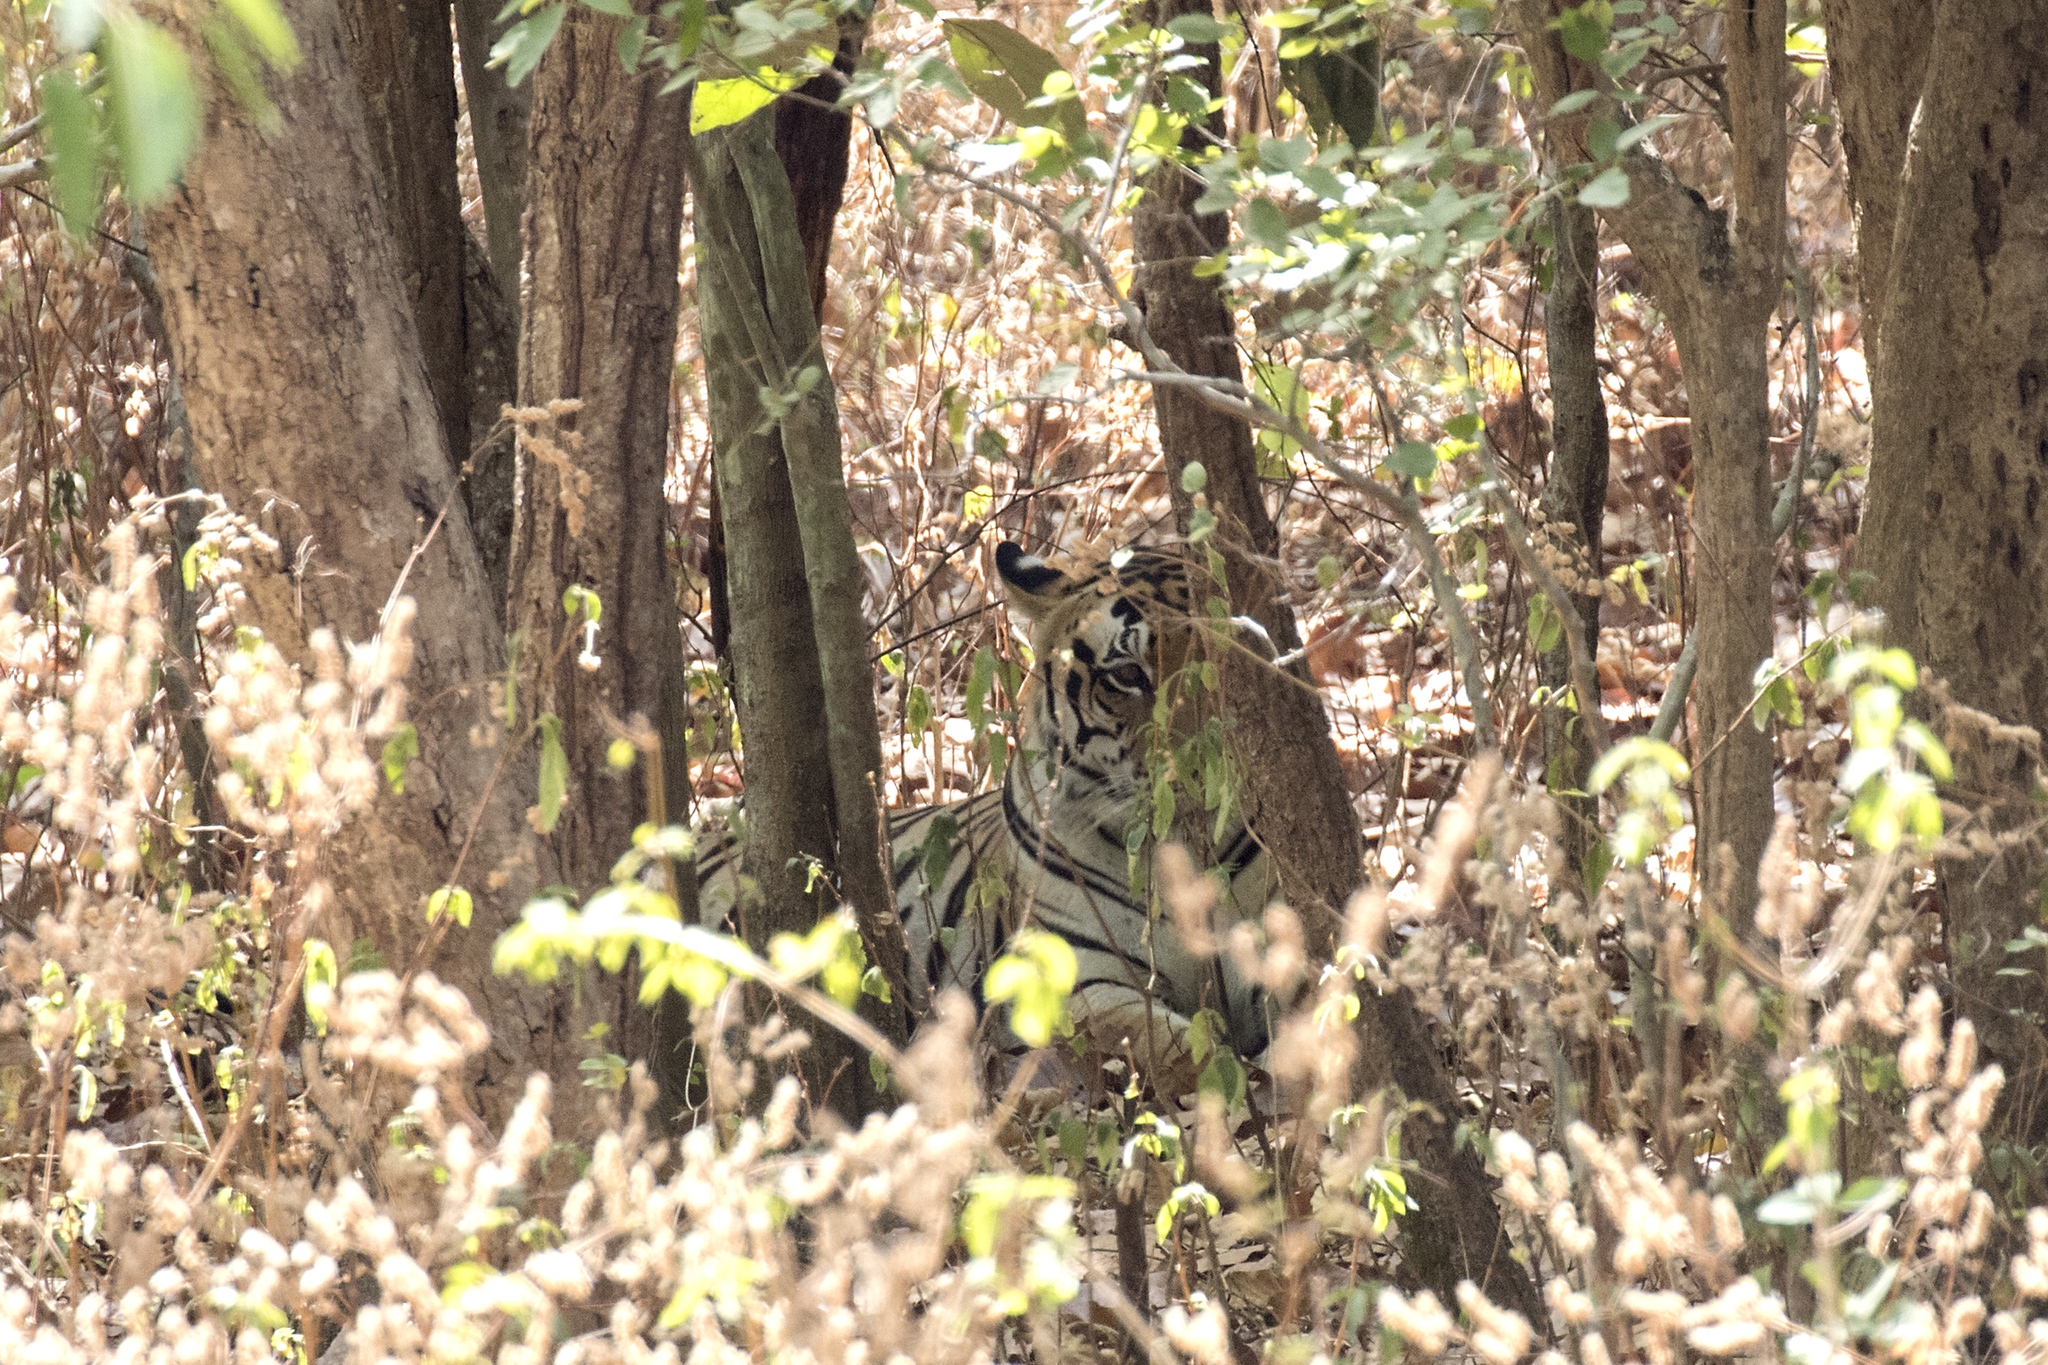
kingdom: Animalia
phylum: Chordata
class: Mammalia
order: Carnivora
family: Felidae
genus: Panthera
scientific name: Panthera tigris
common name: Tiger
